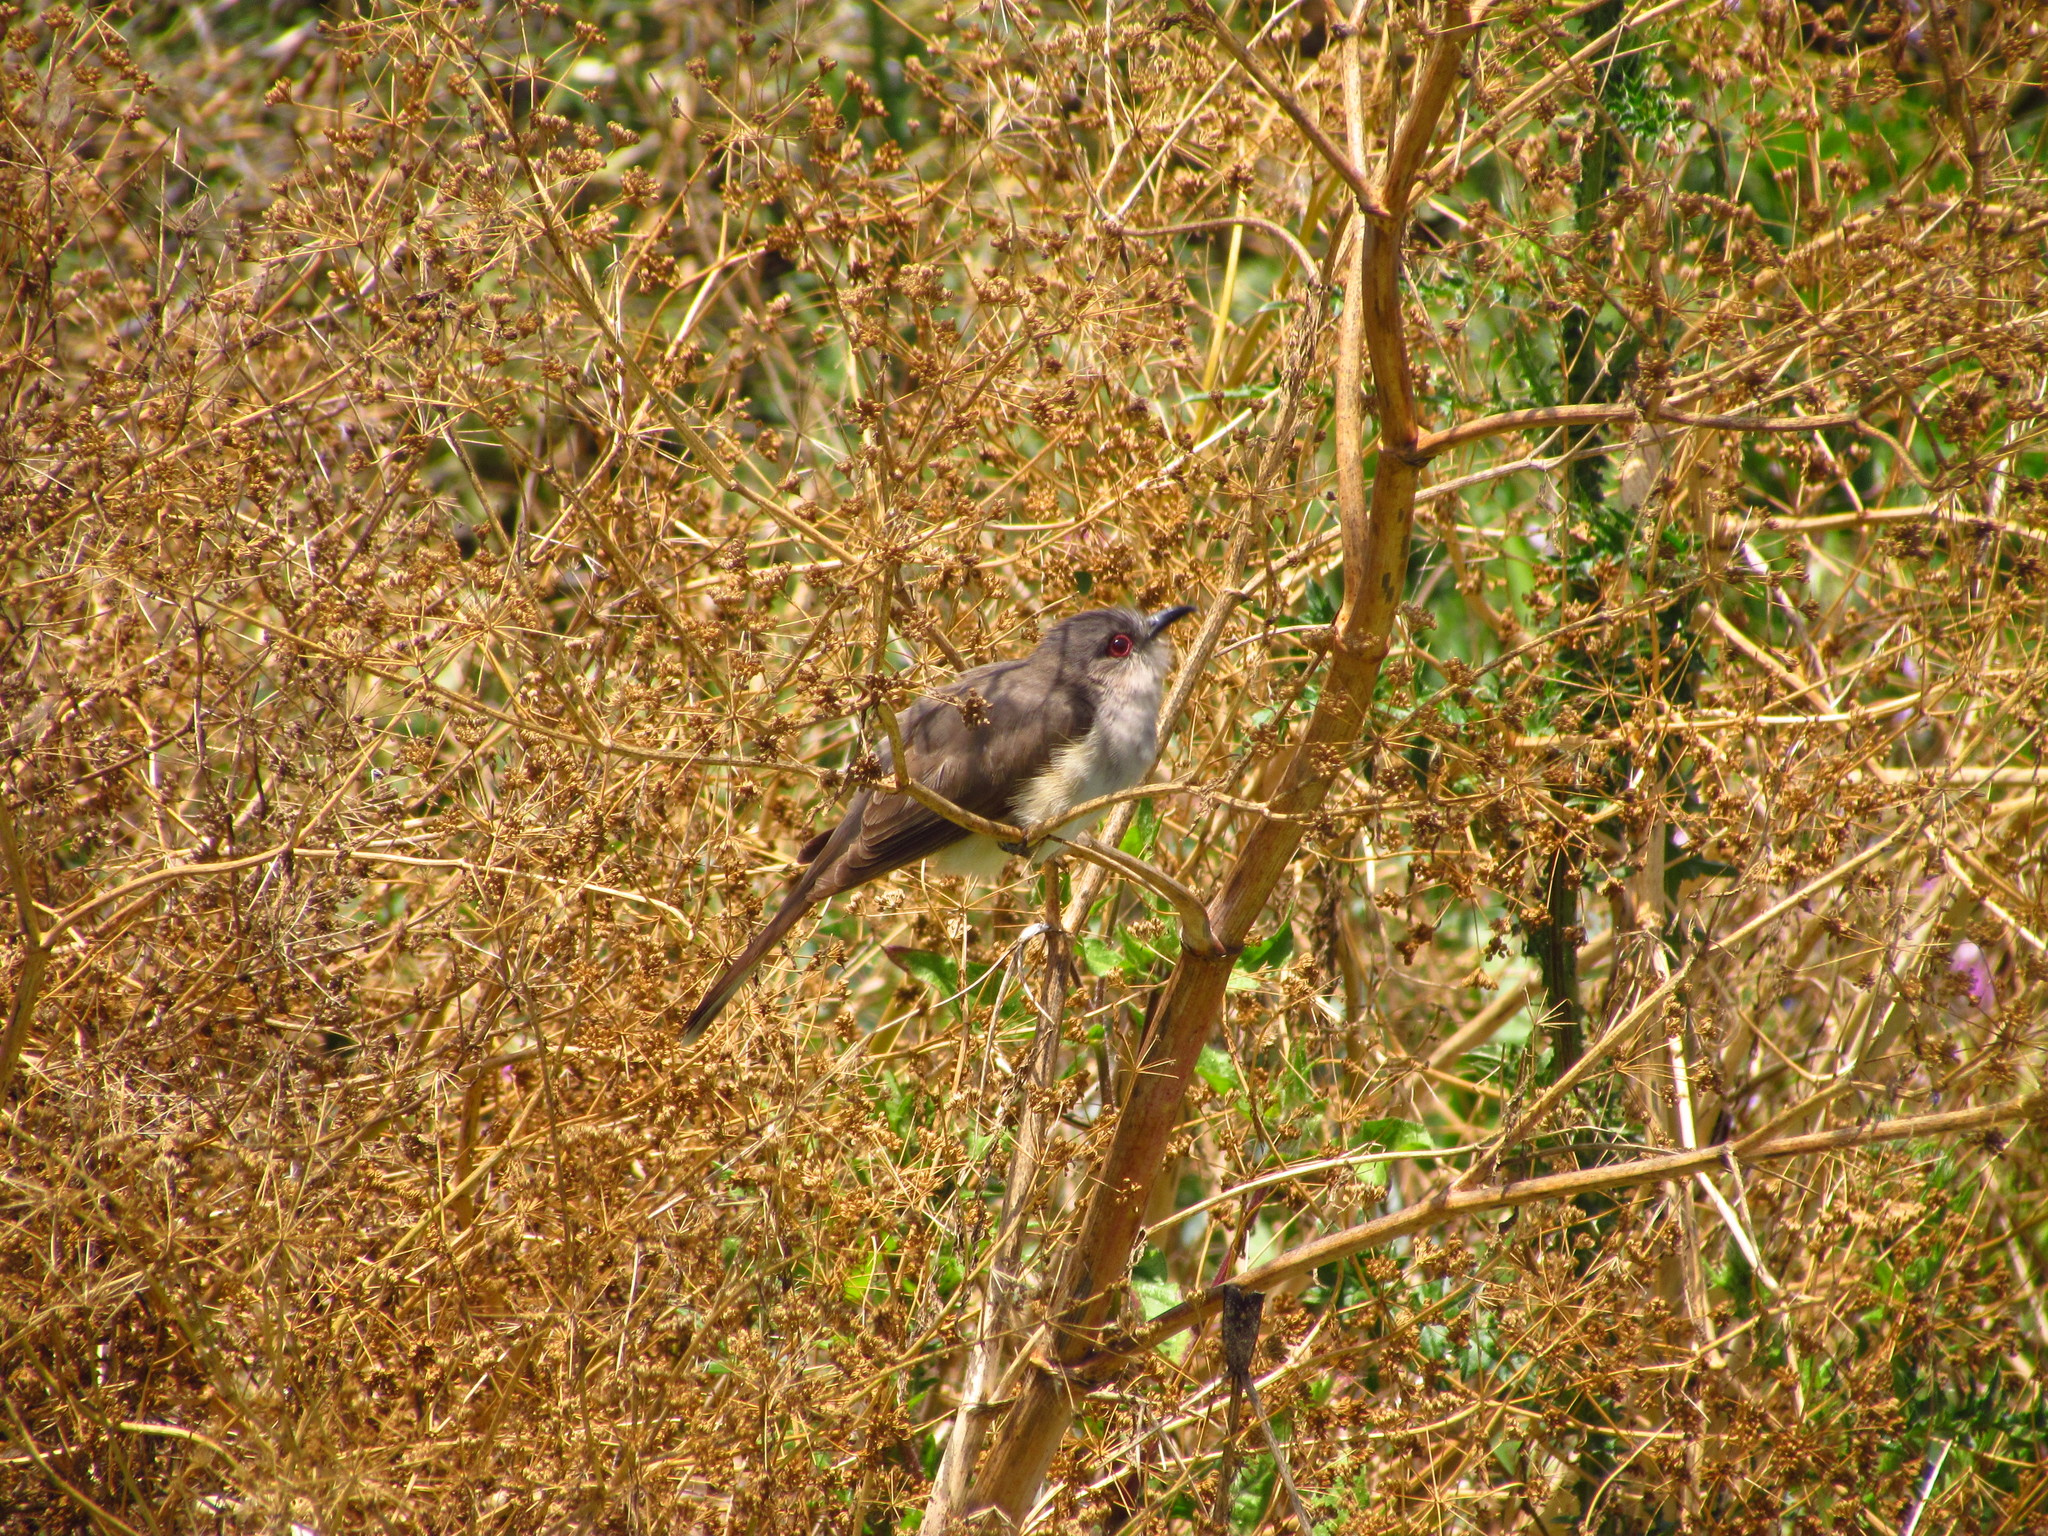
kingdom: Animalia
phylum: Chordata
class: Aves
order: Cuculiformes
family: Cuculidae
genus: Coccyzus
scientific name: Coccyzus cinereus
